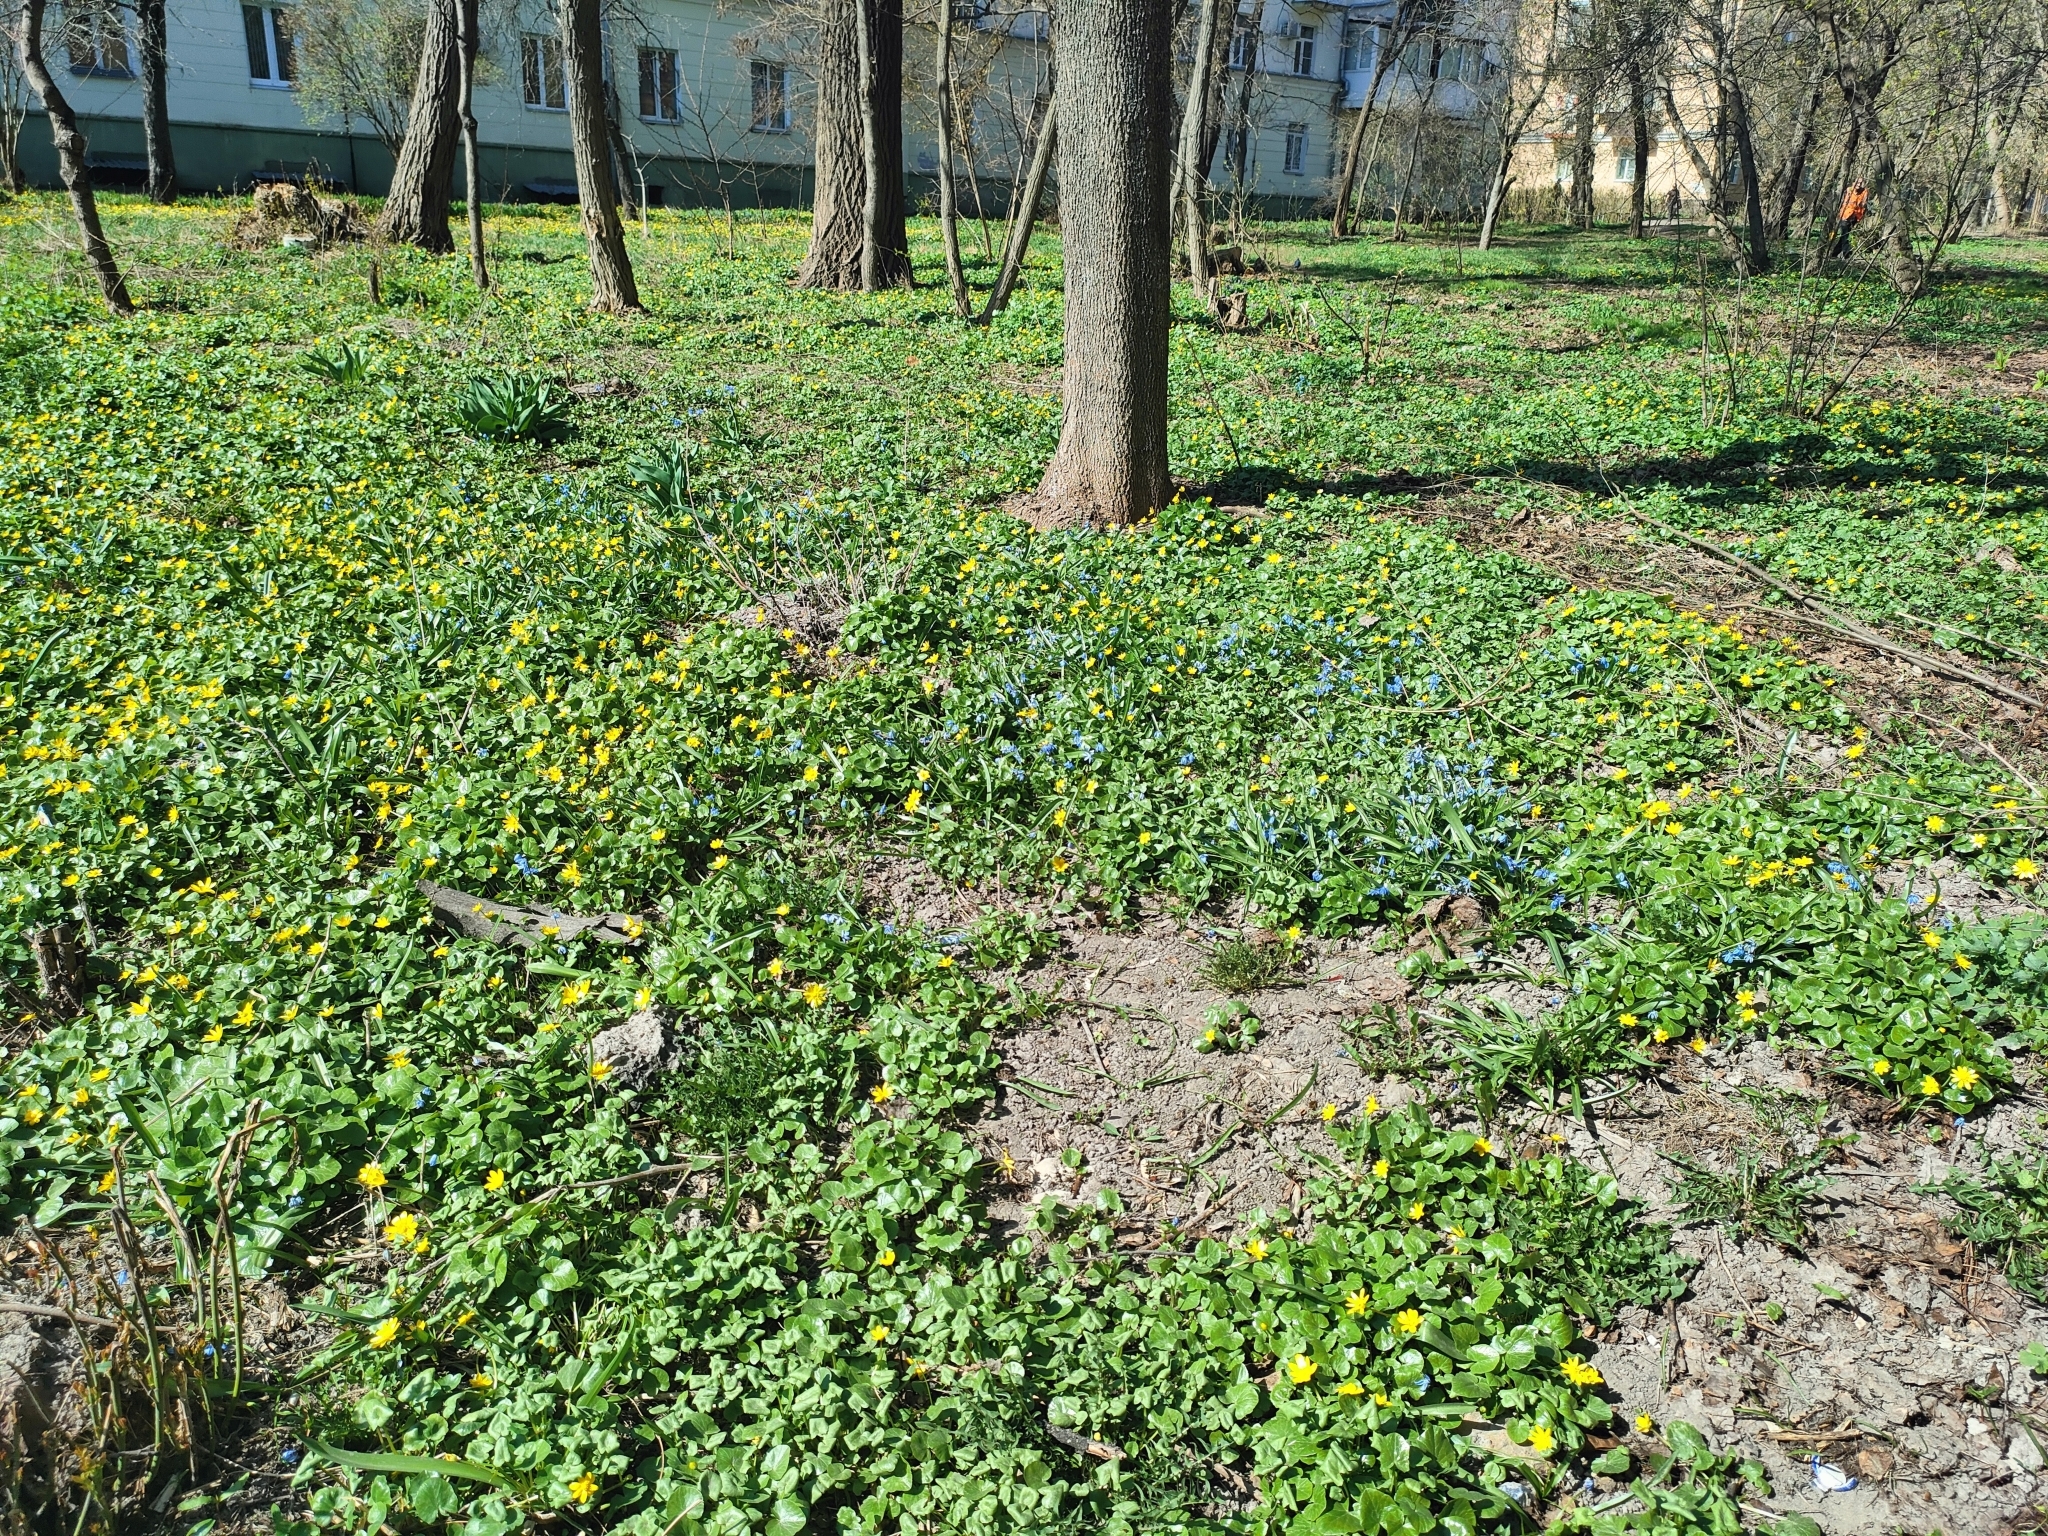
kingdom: Plantae
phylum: Tracheophyta
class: Magnoliopsida
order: Ranunculales
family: Ranunculaceae
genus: Ficaria
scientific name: Ficaria verna
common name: Lesser celandine
